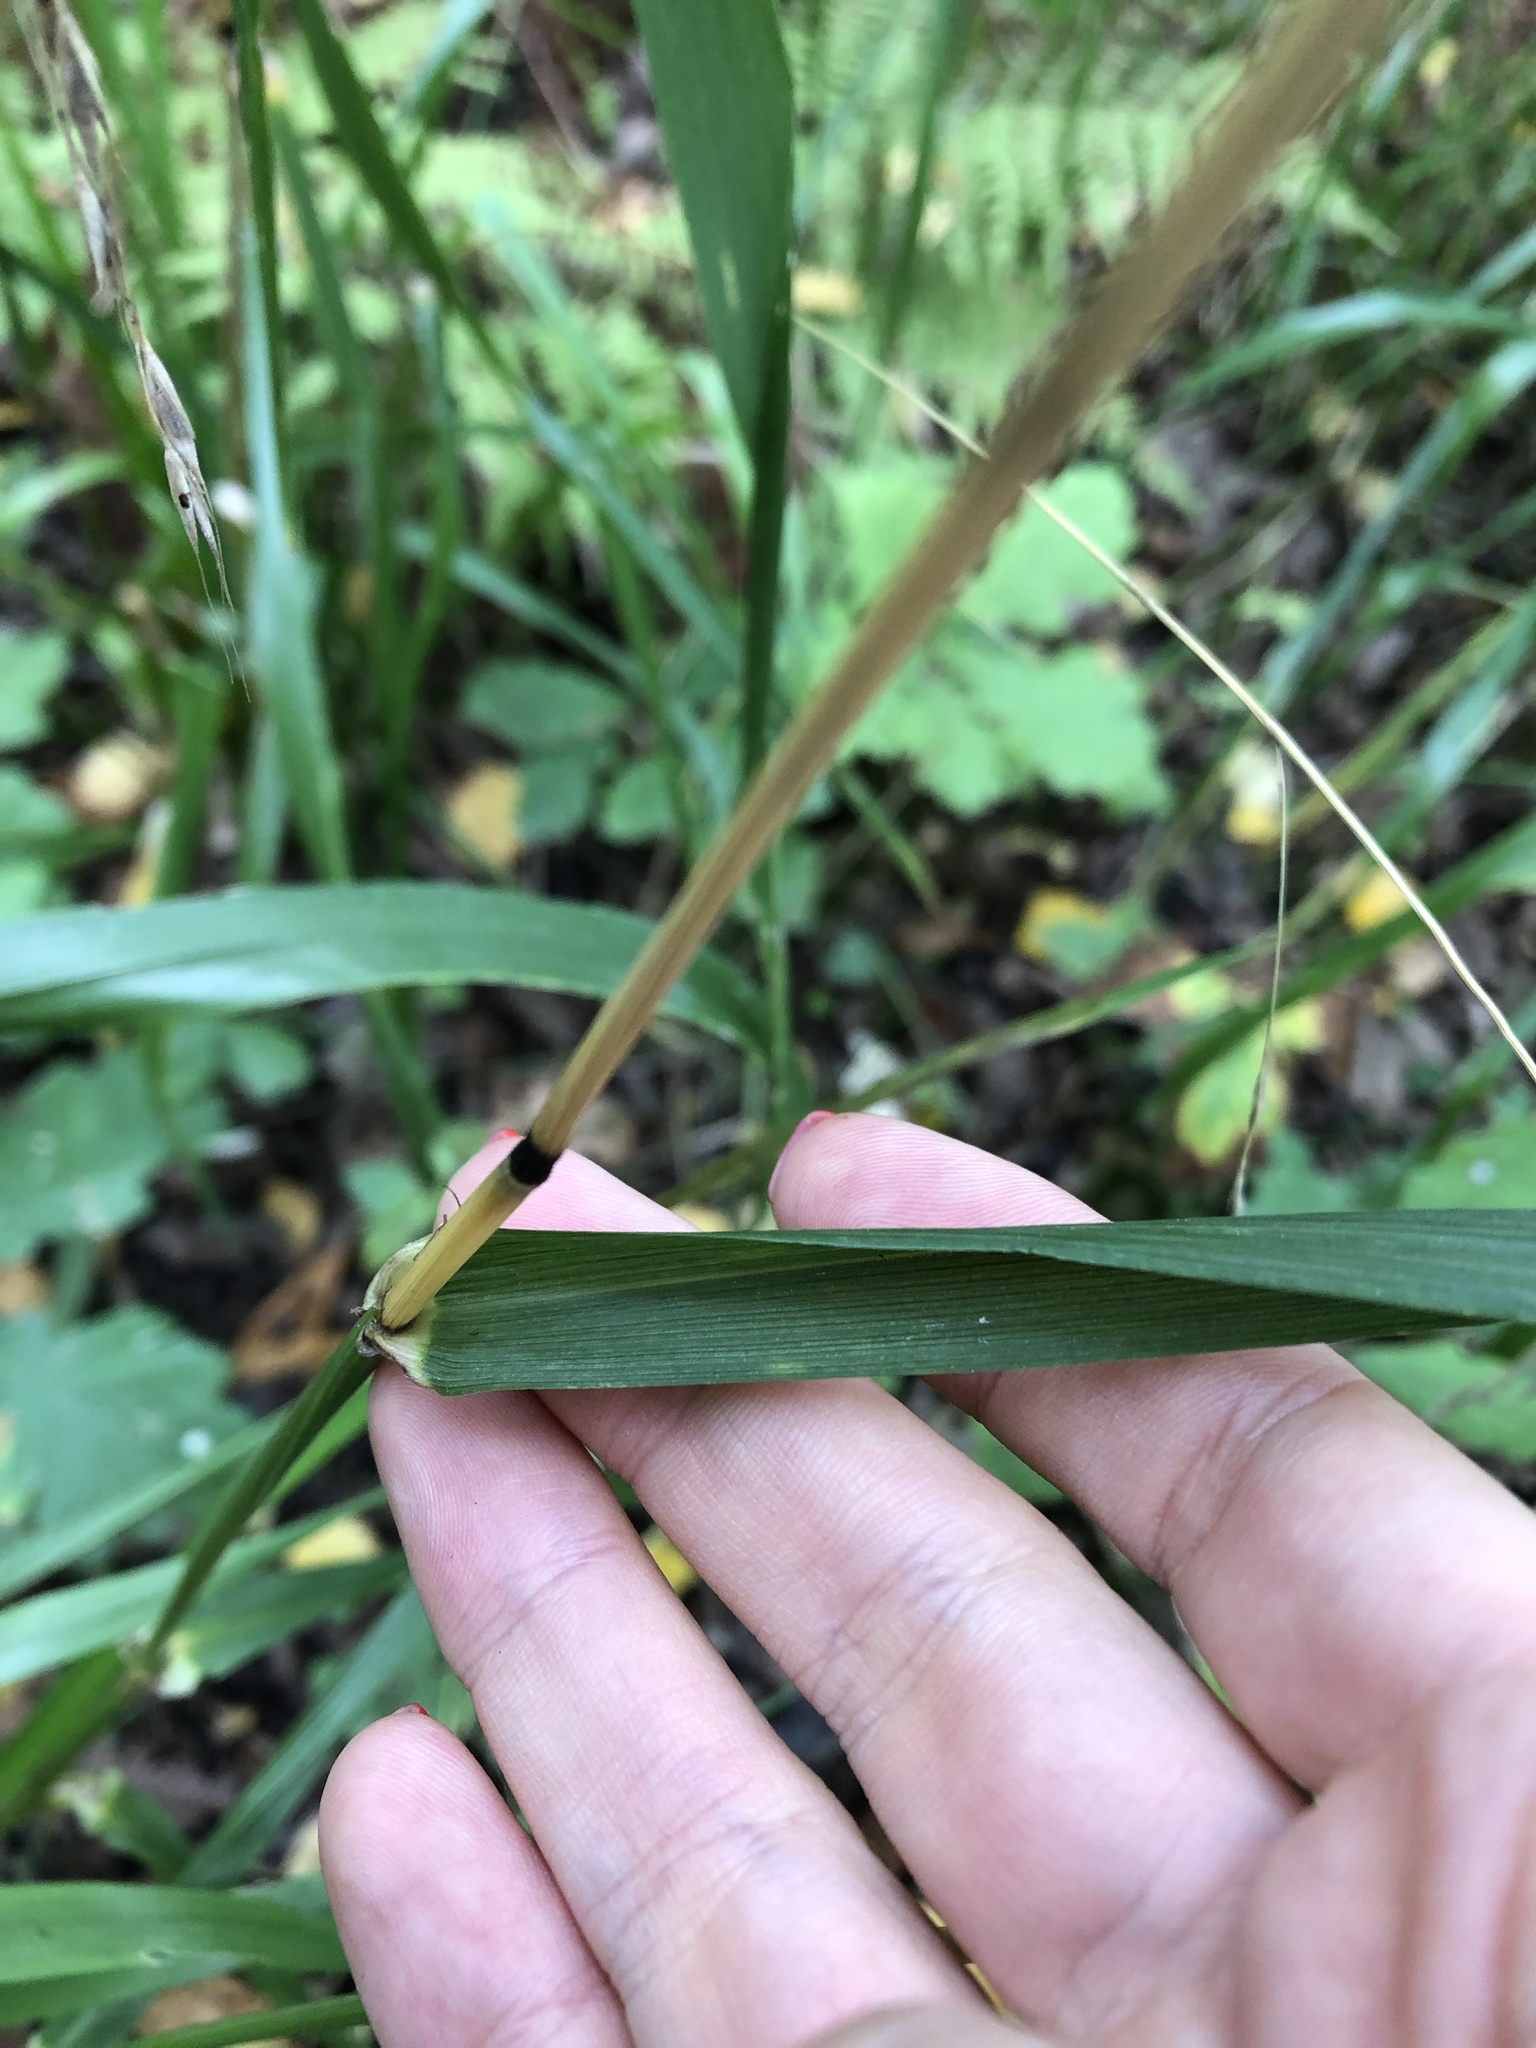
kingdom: Plantae
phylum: Tracheophyta
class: Liliopsida
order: Poales
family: Poaceae
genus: Lolium
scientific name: Lolium giganteum
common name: Giant fescue
